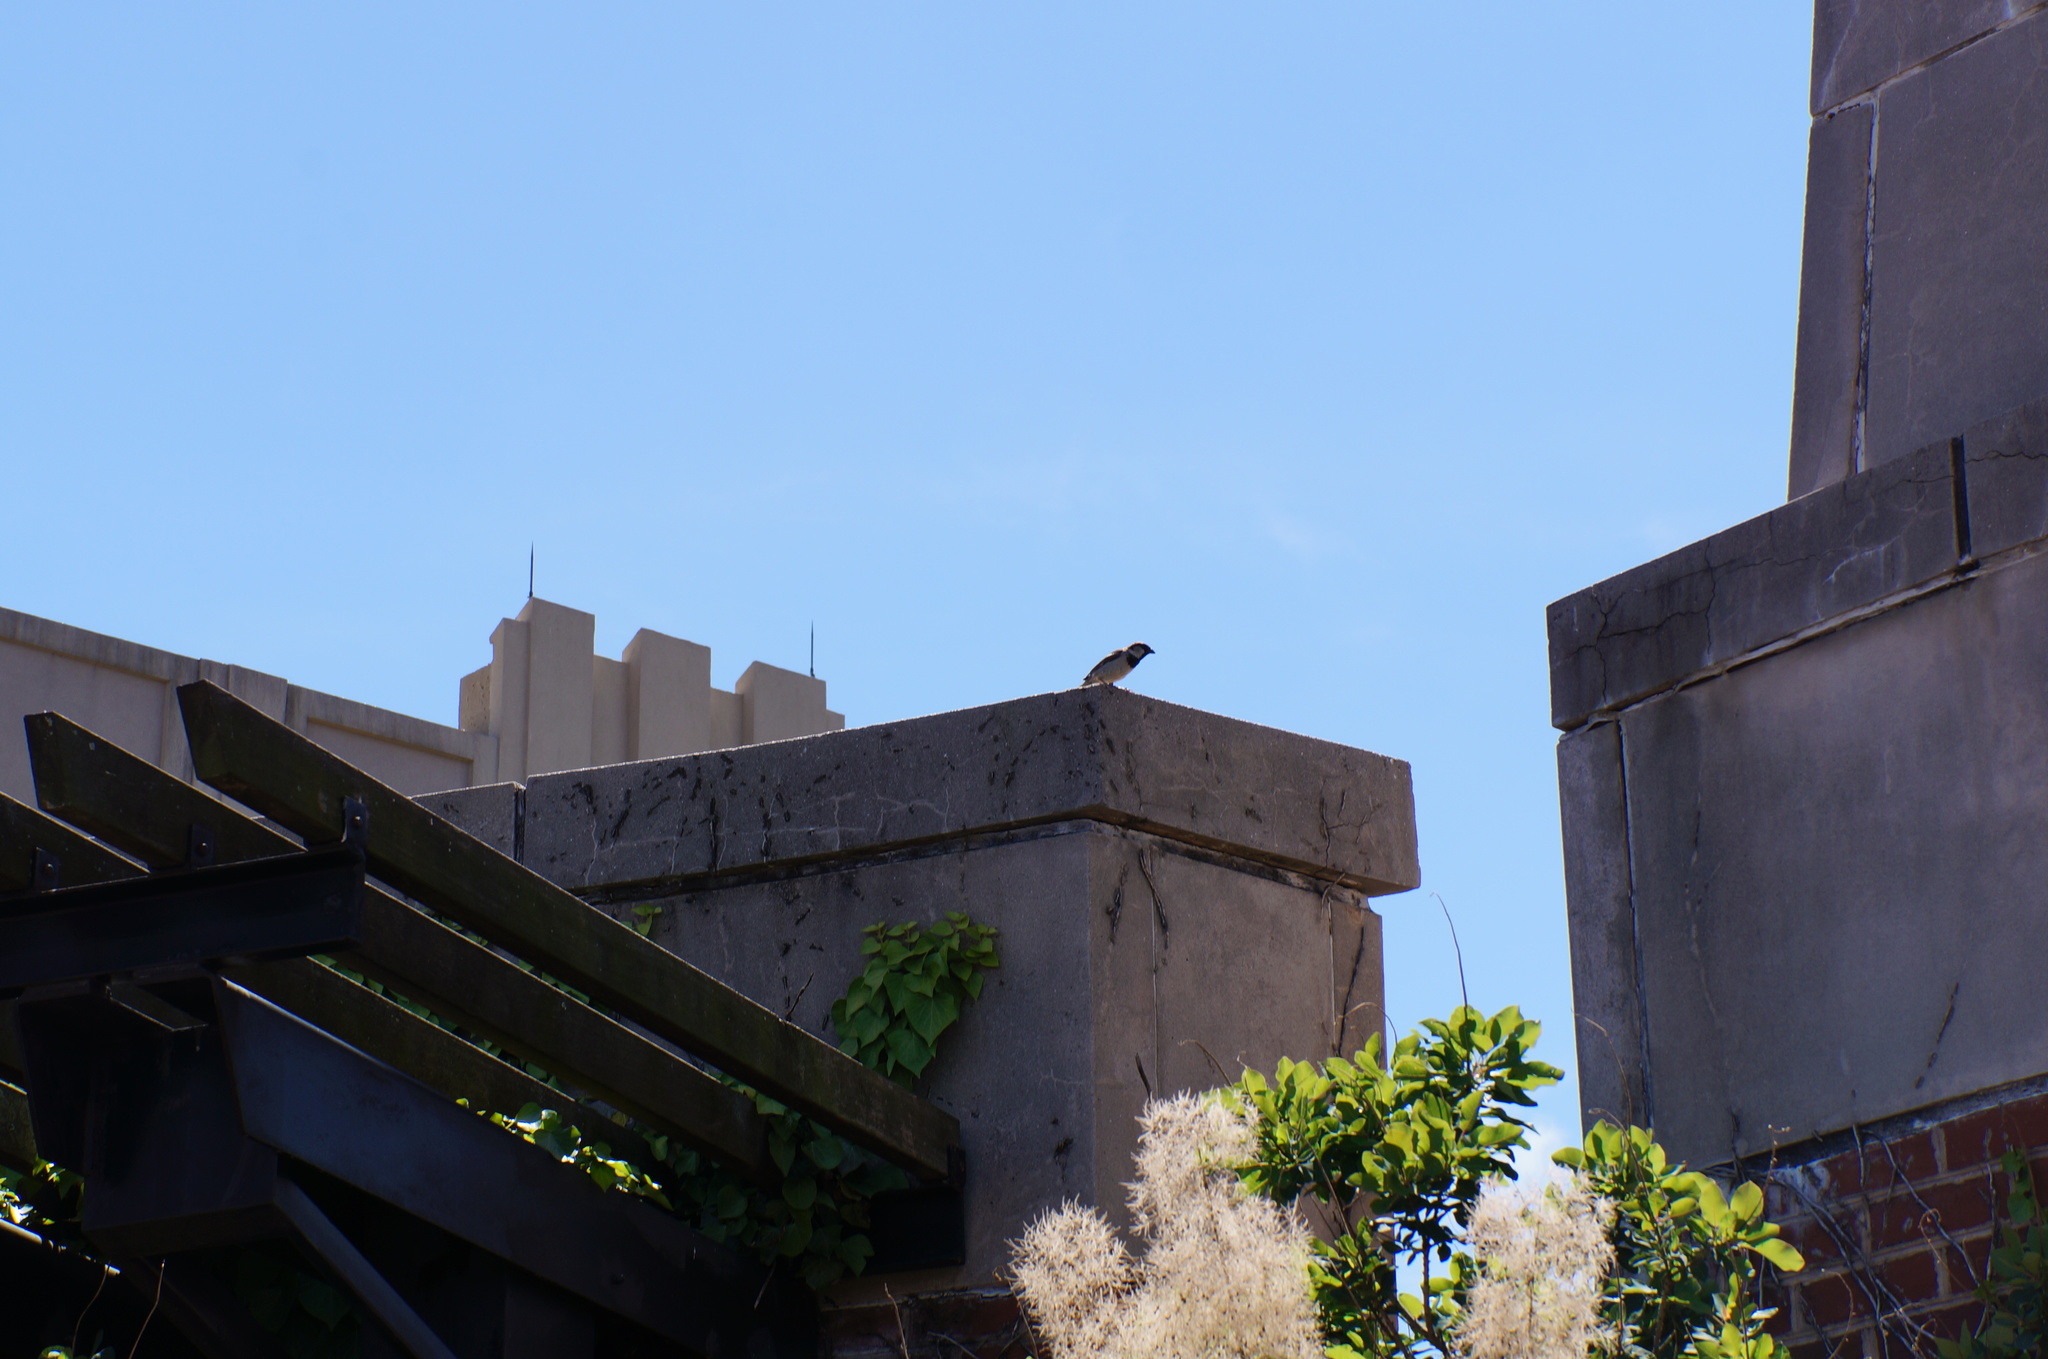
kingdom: Animalia
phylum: Chordata
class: Aves
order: Passeriformes
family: Passeridae
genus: Passer
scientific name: Passer domesticus
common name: House sparrow
